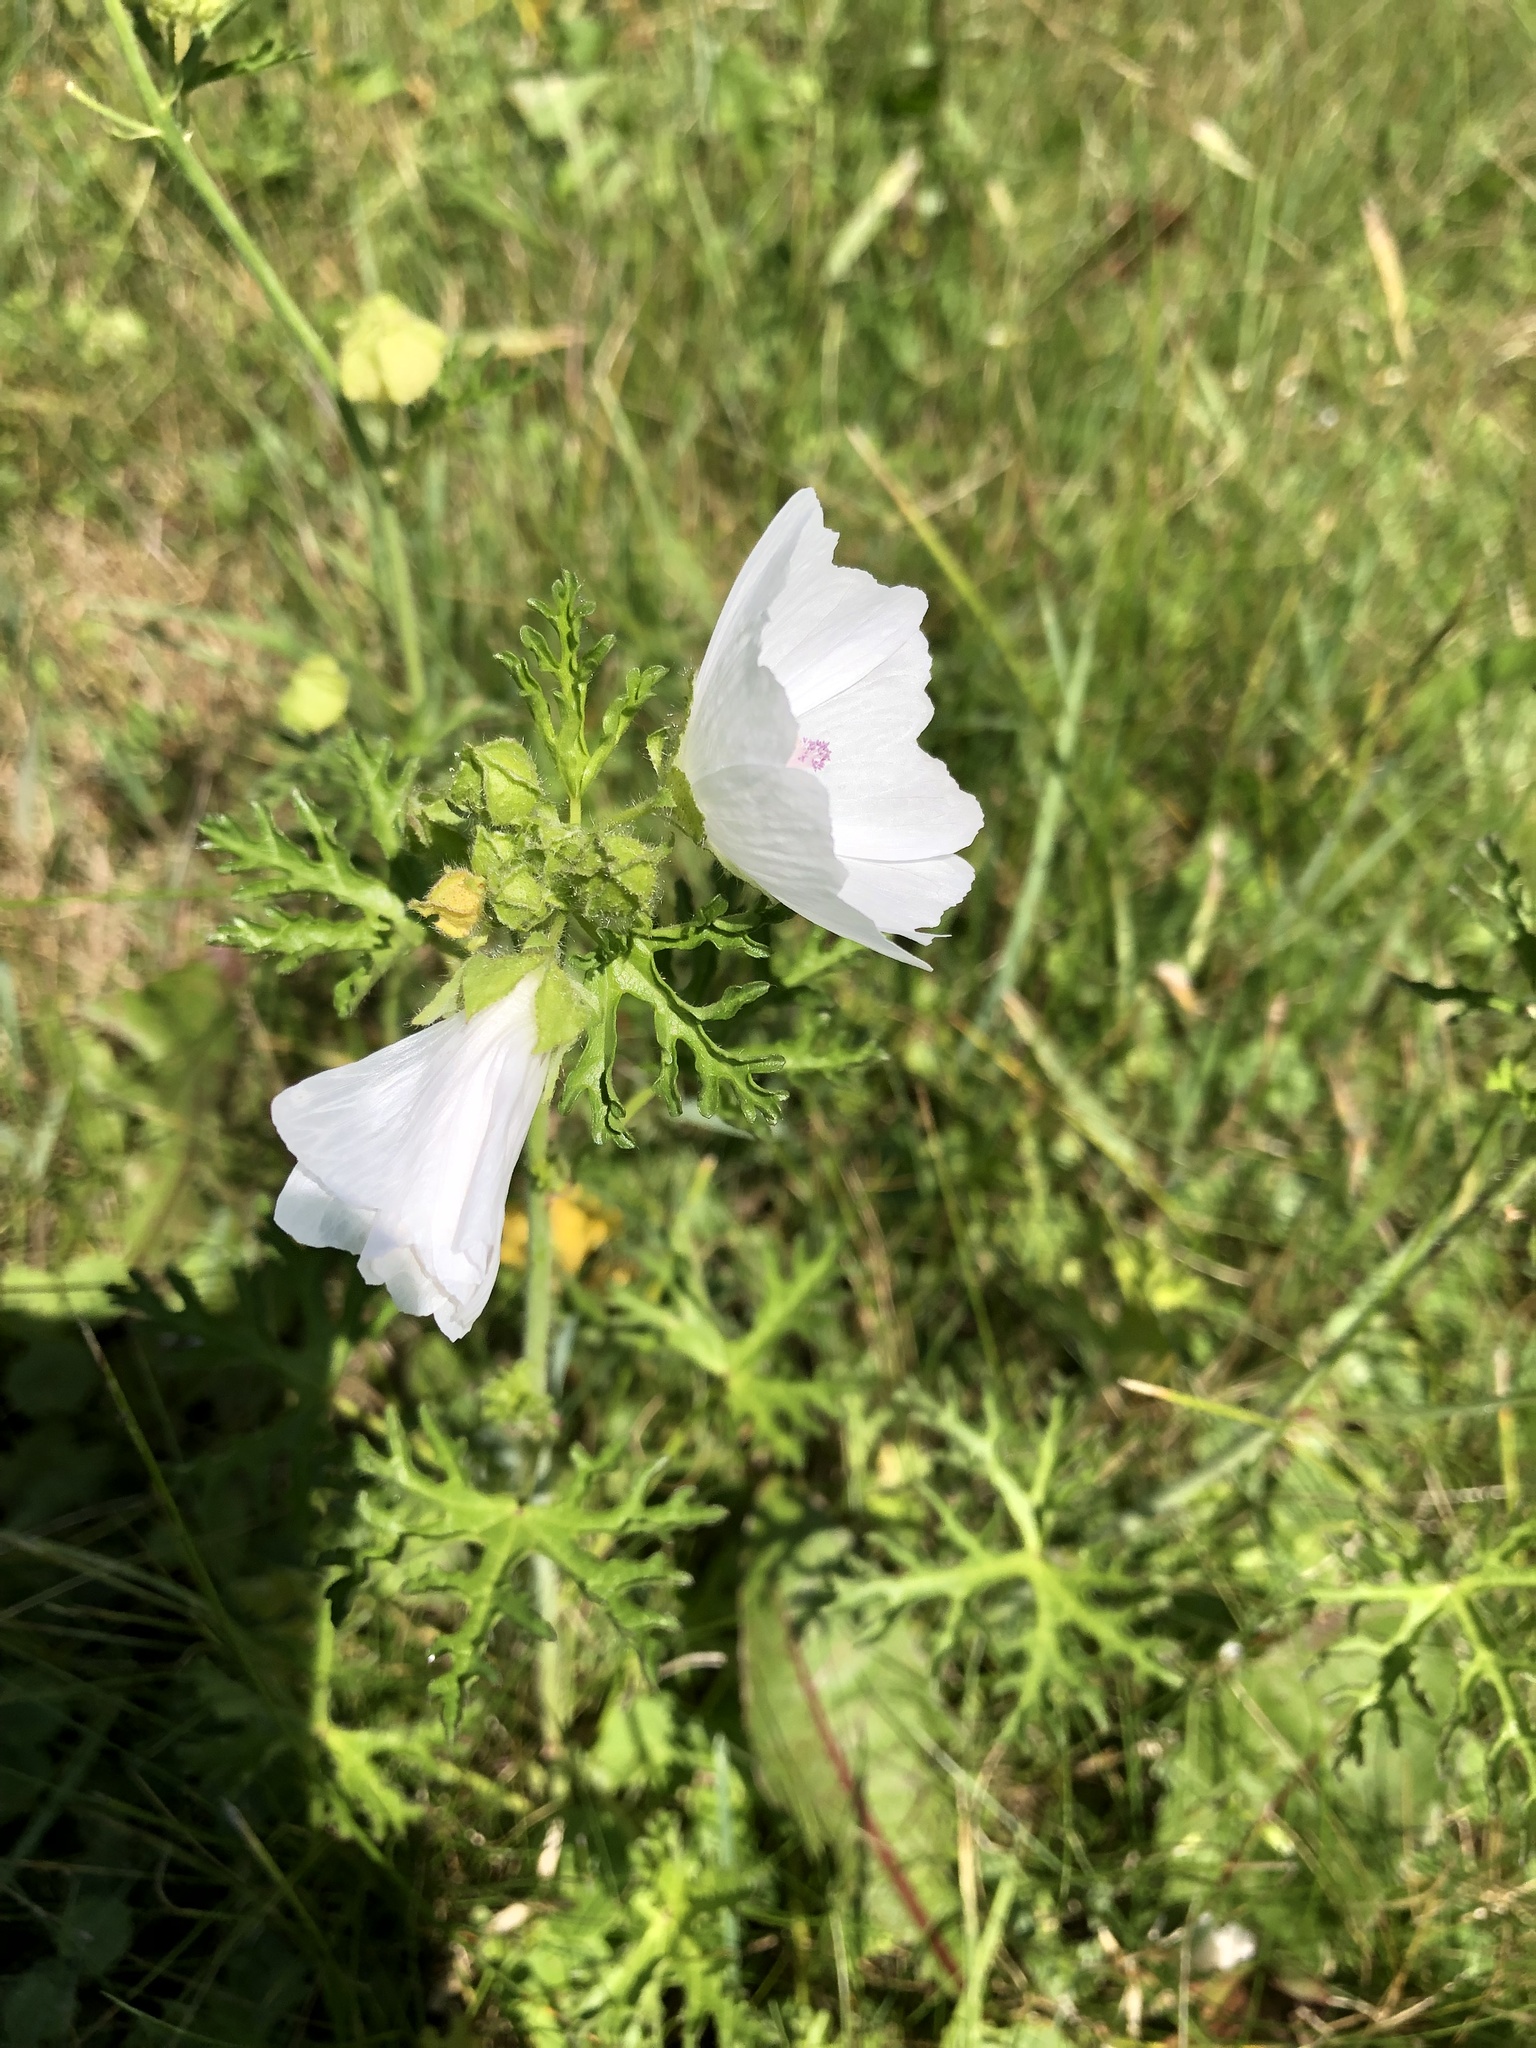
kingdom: Plantae
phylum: Tracheophyta
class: Magnoliopsida
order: Malvales
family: Malvaceae
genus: Malva
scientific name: Malva moschata
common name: Musk mallow
